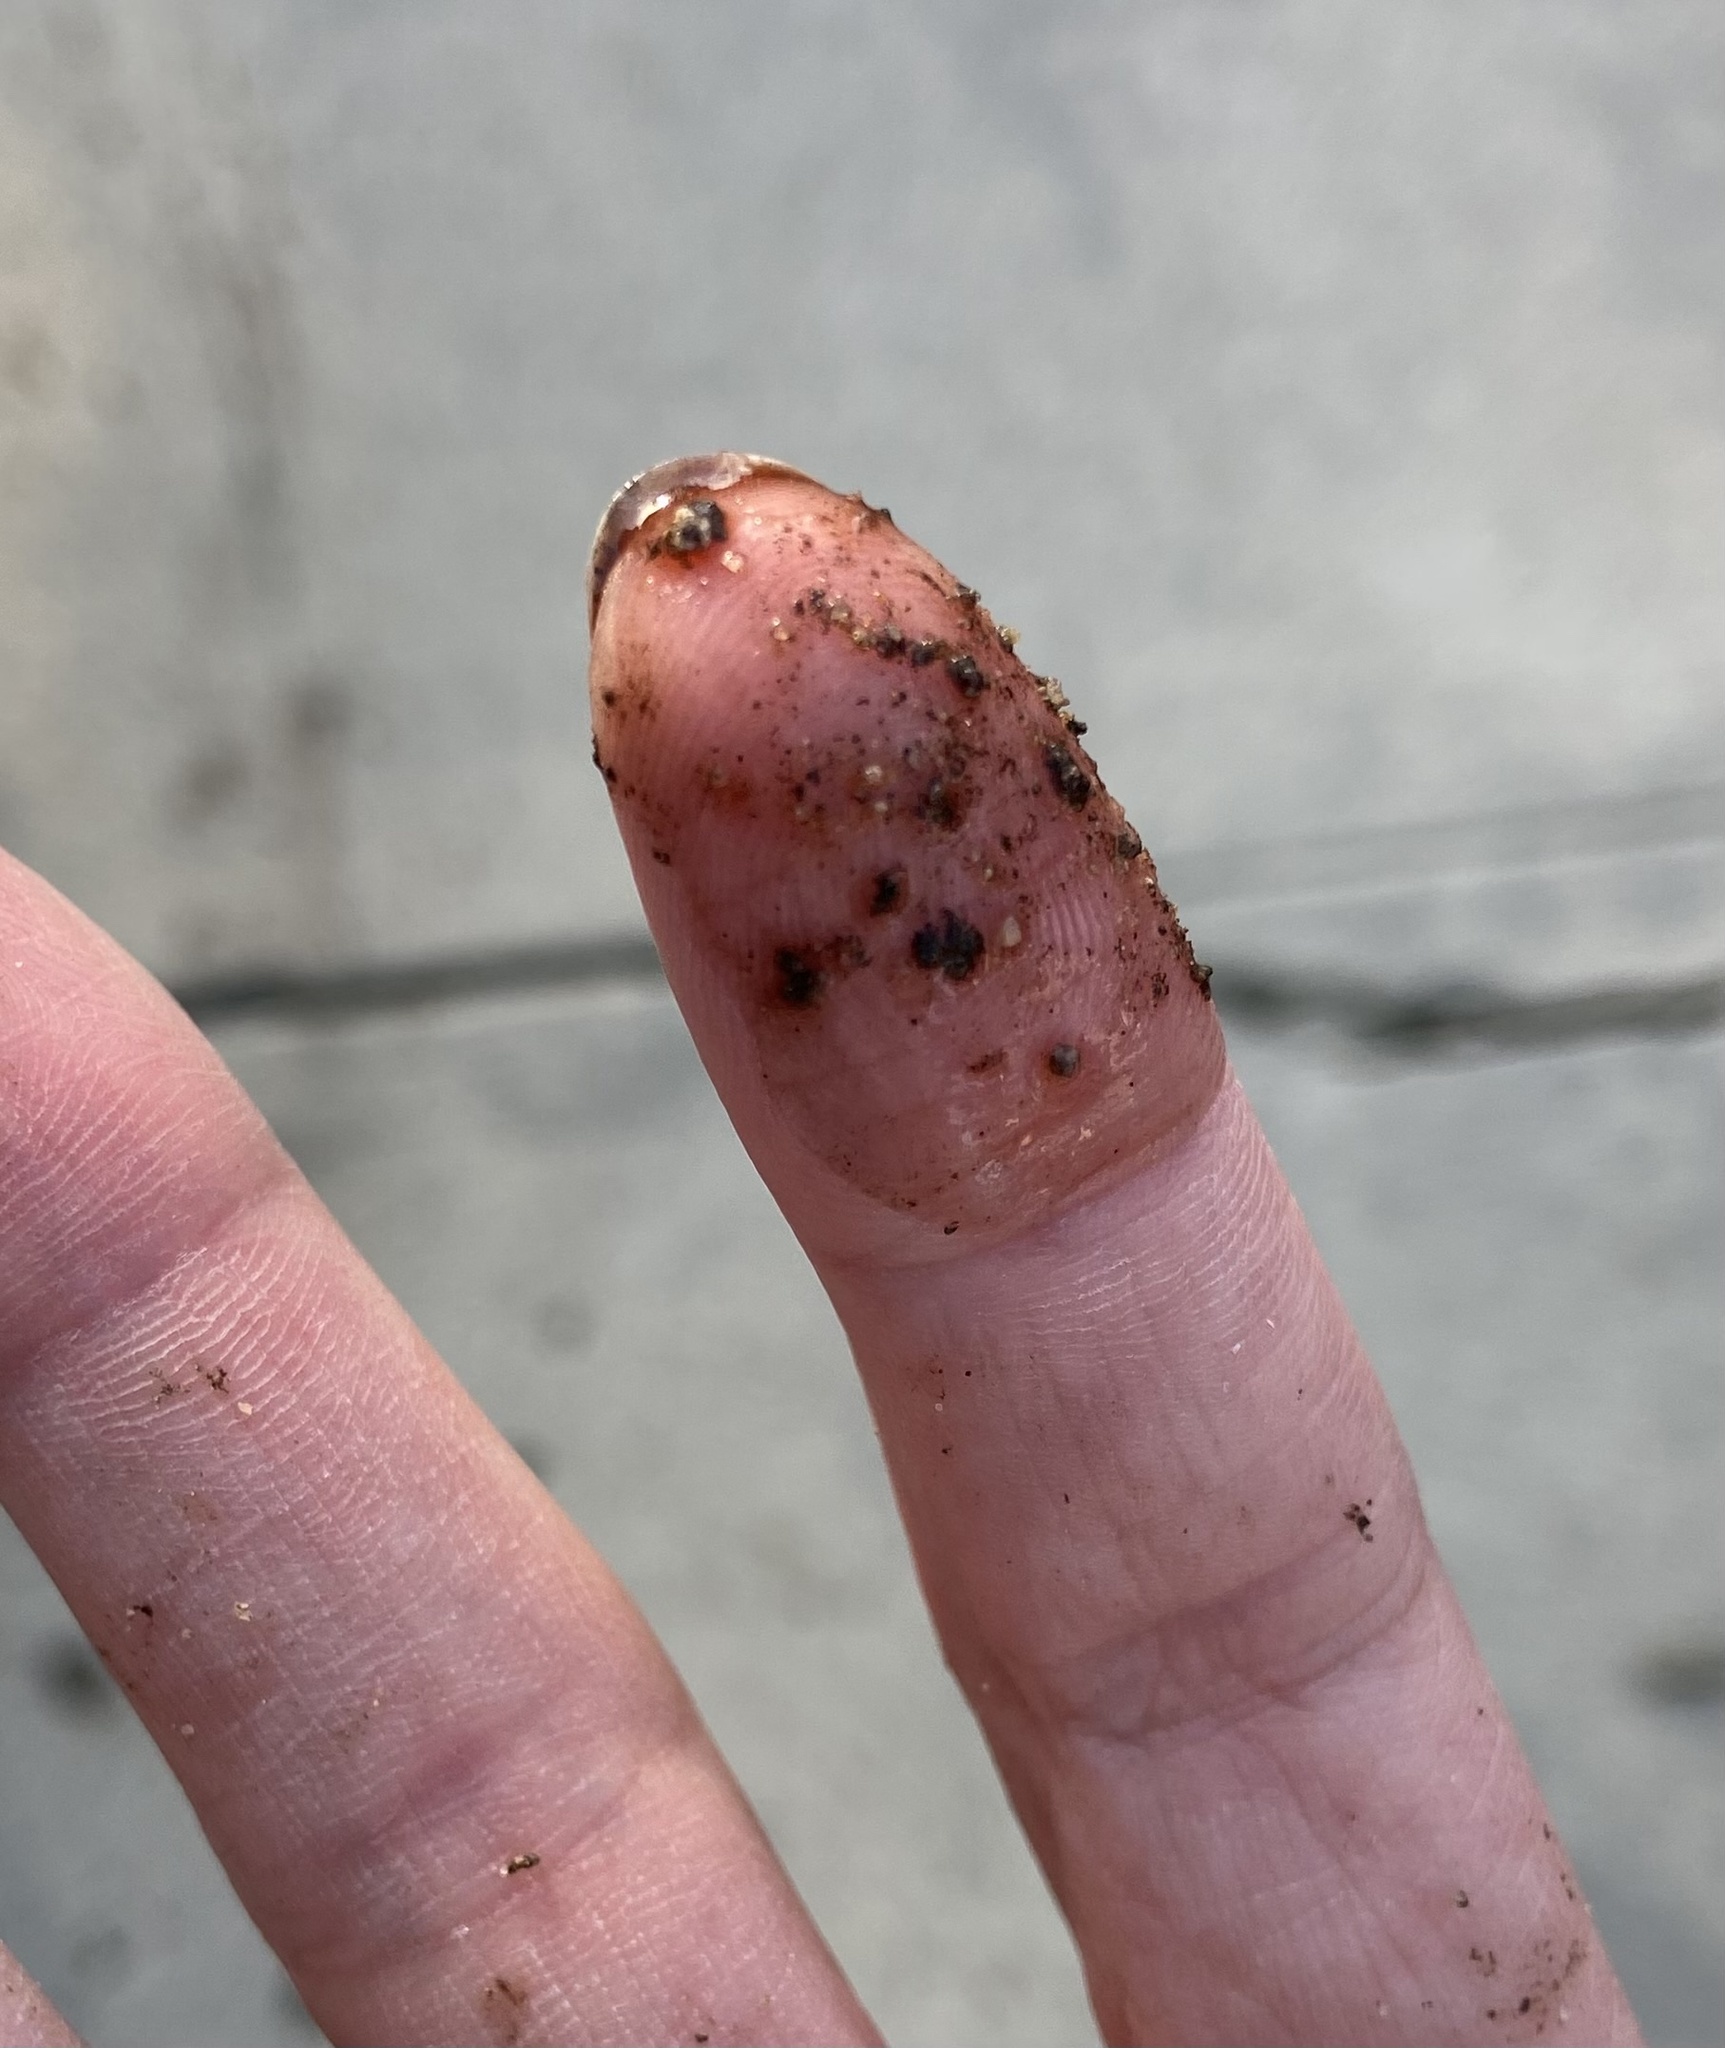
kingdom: Fungi
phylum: Basidiomycota
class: Agaricomycetes
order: Polyporales
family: Podoscyphaceae
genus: Abortiporus
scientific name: Abortiporus biennis
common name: Blushing rosette
